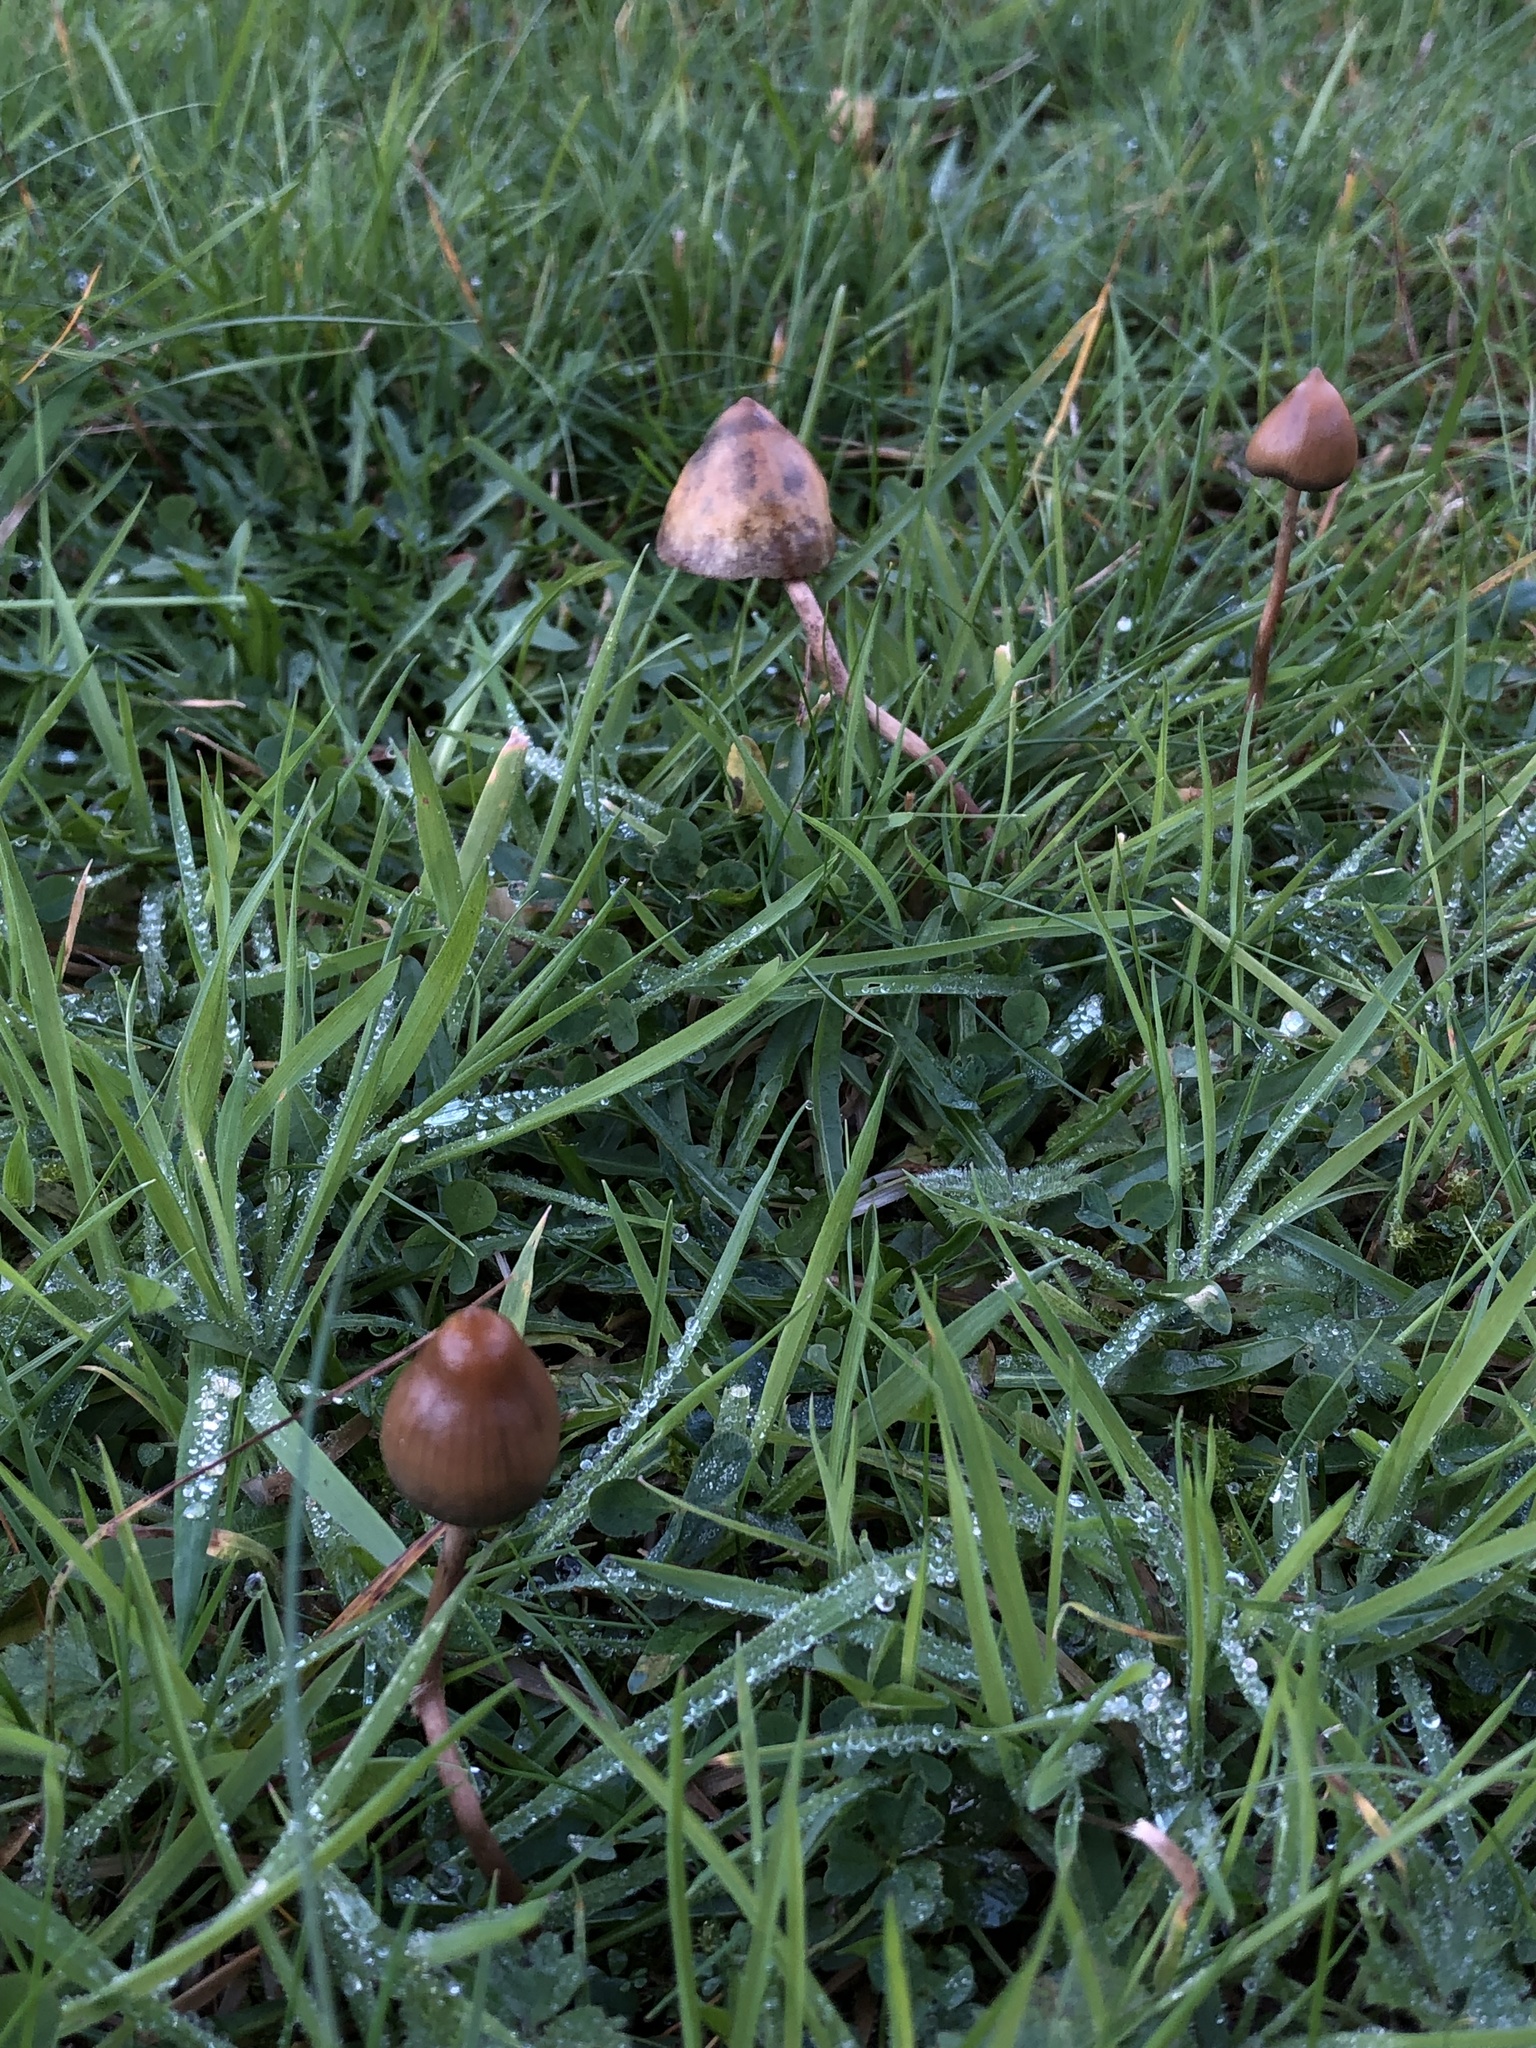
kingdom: Fungi
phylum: Basidiomycota
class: Agaricomycetes
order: Agaricales
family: Hymenogastraceae
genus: Psilocybe
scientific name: Psilocybe semilanceata
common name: Liberty cap
